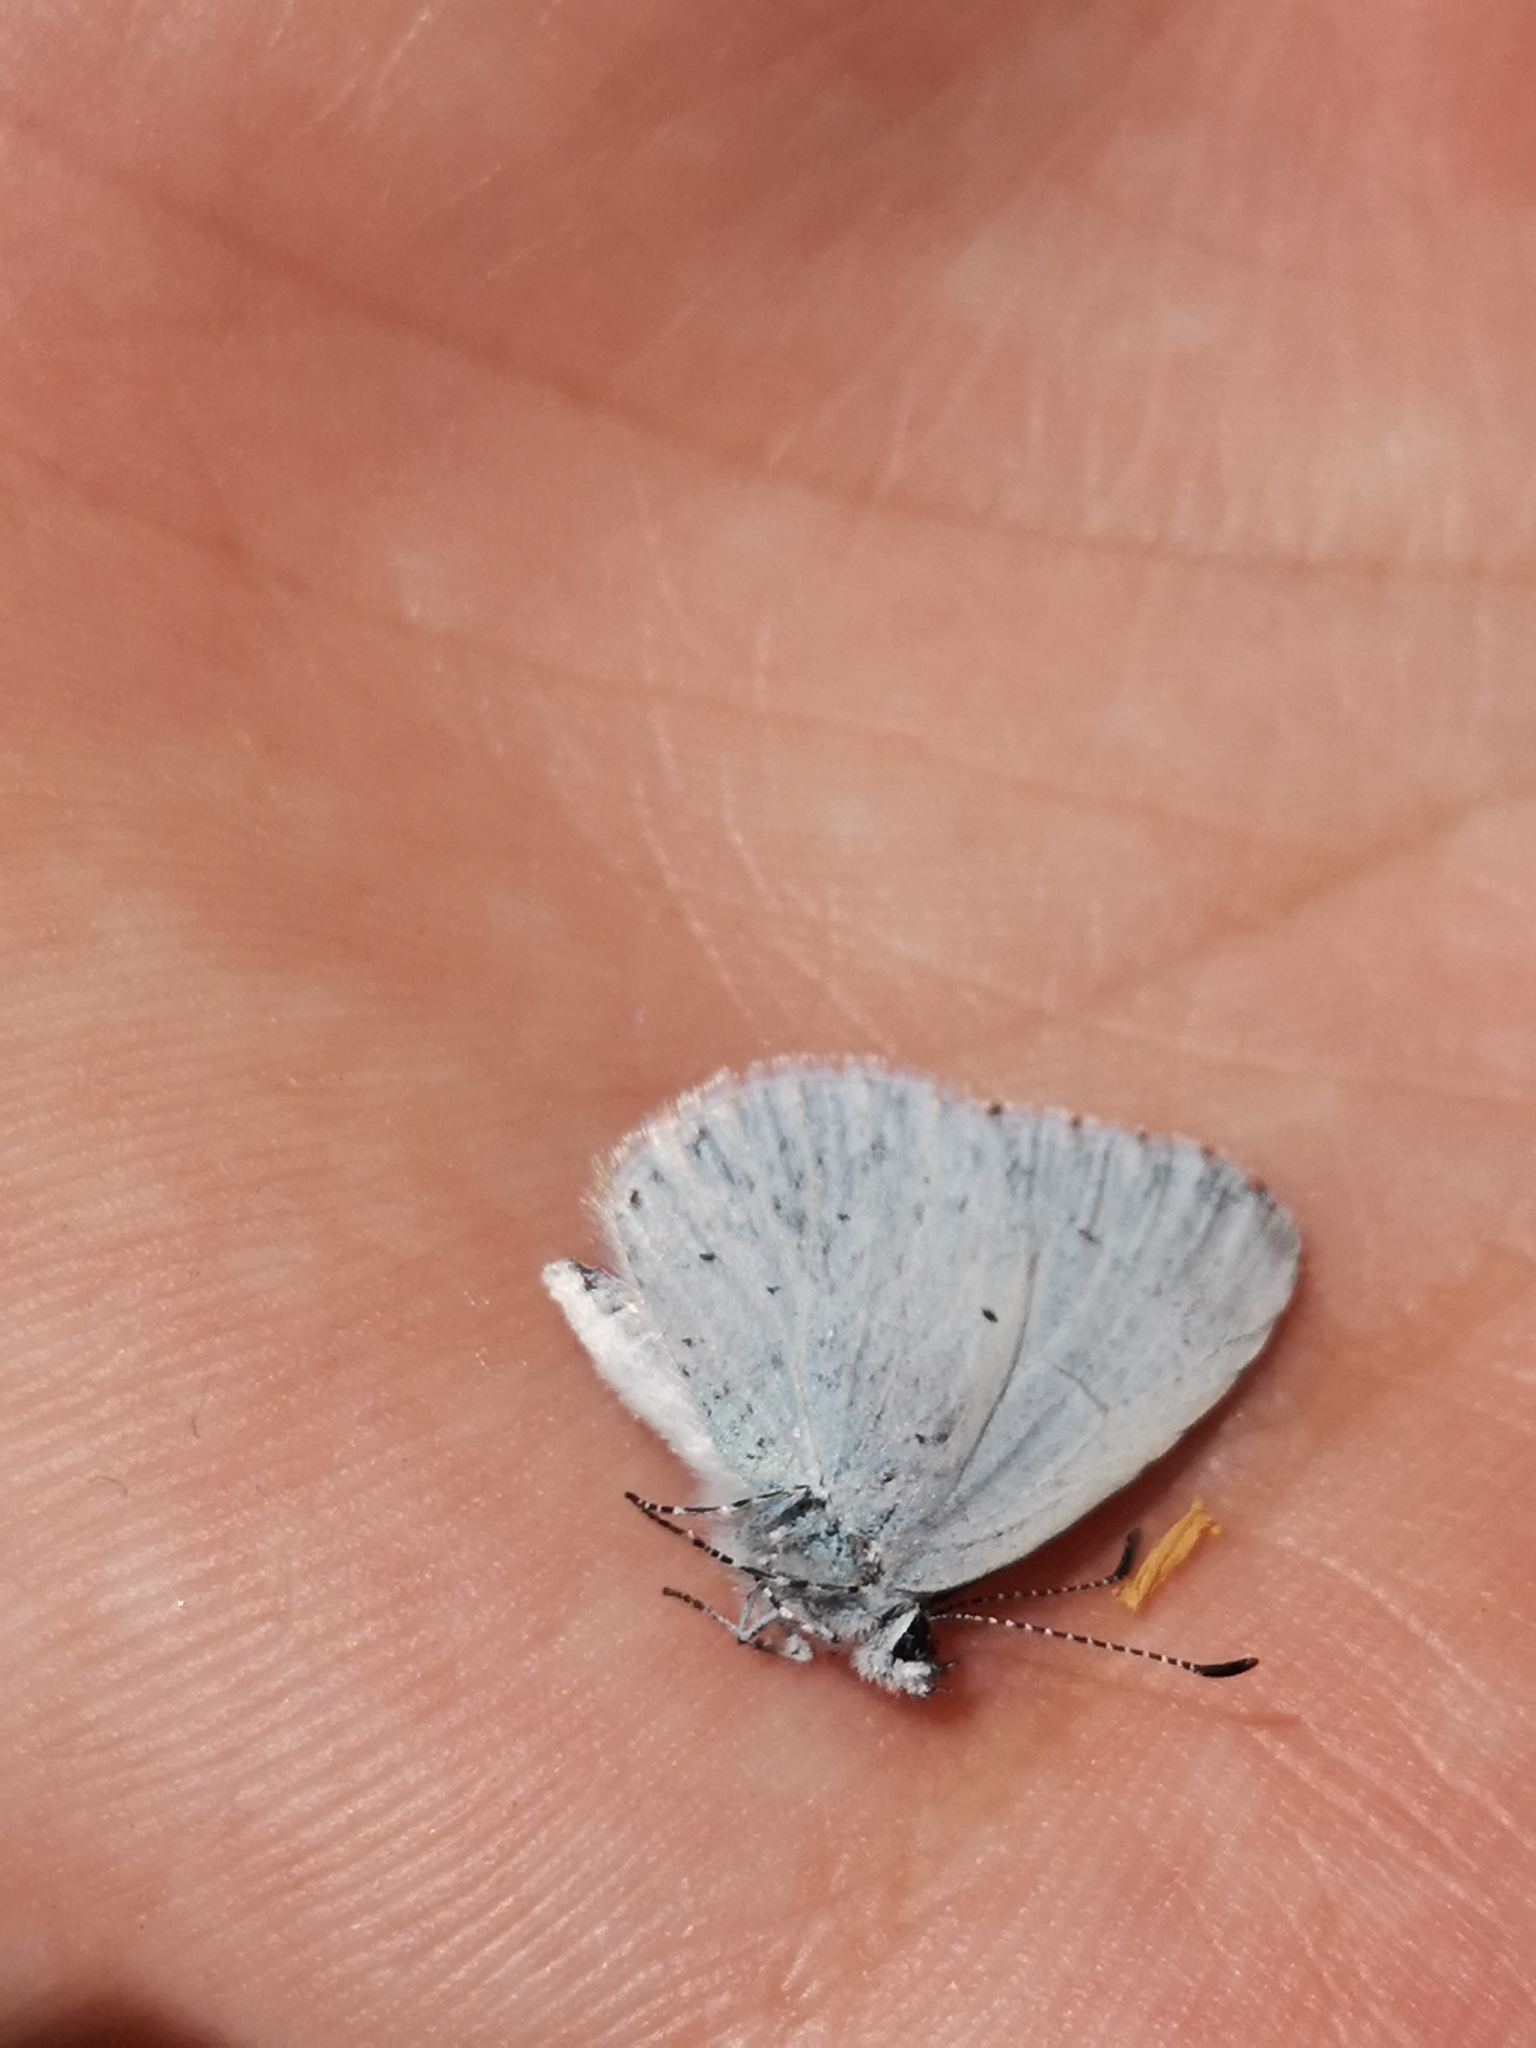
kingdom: Animalia
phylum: Arthropoda
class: Insecta
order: Lepidoptera
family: Lycaenidae
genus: Celastrina
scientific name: Celastrina argiolus
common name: Holly blue
